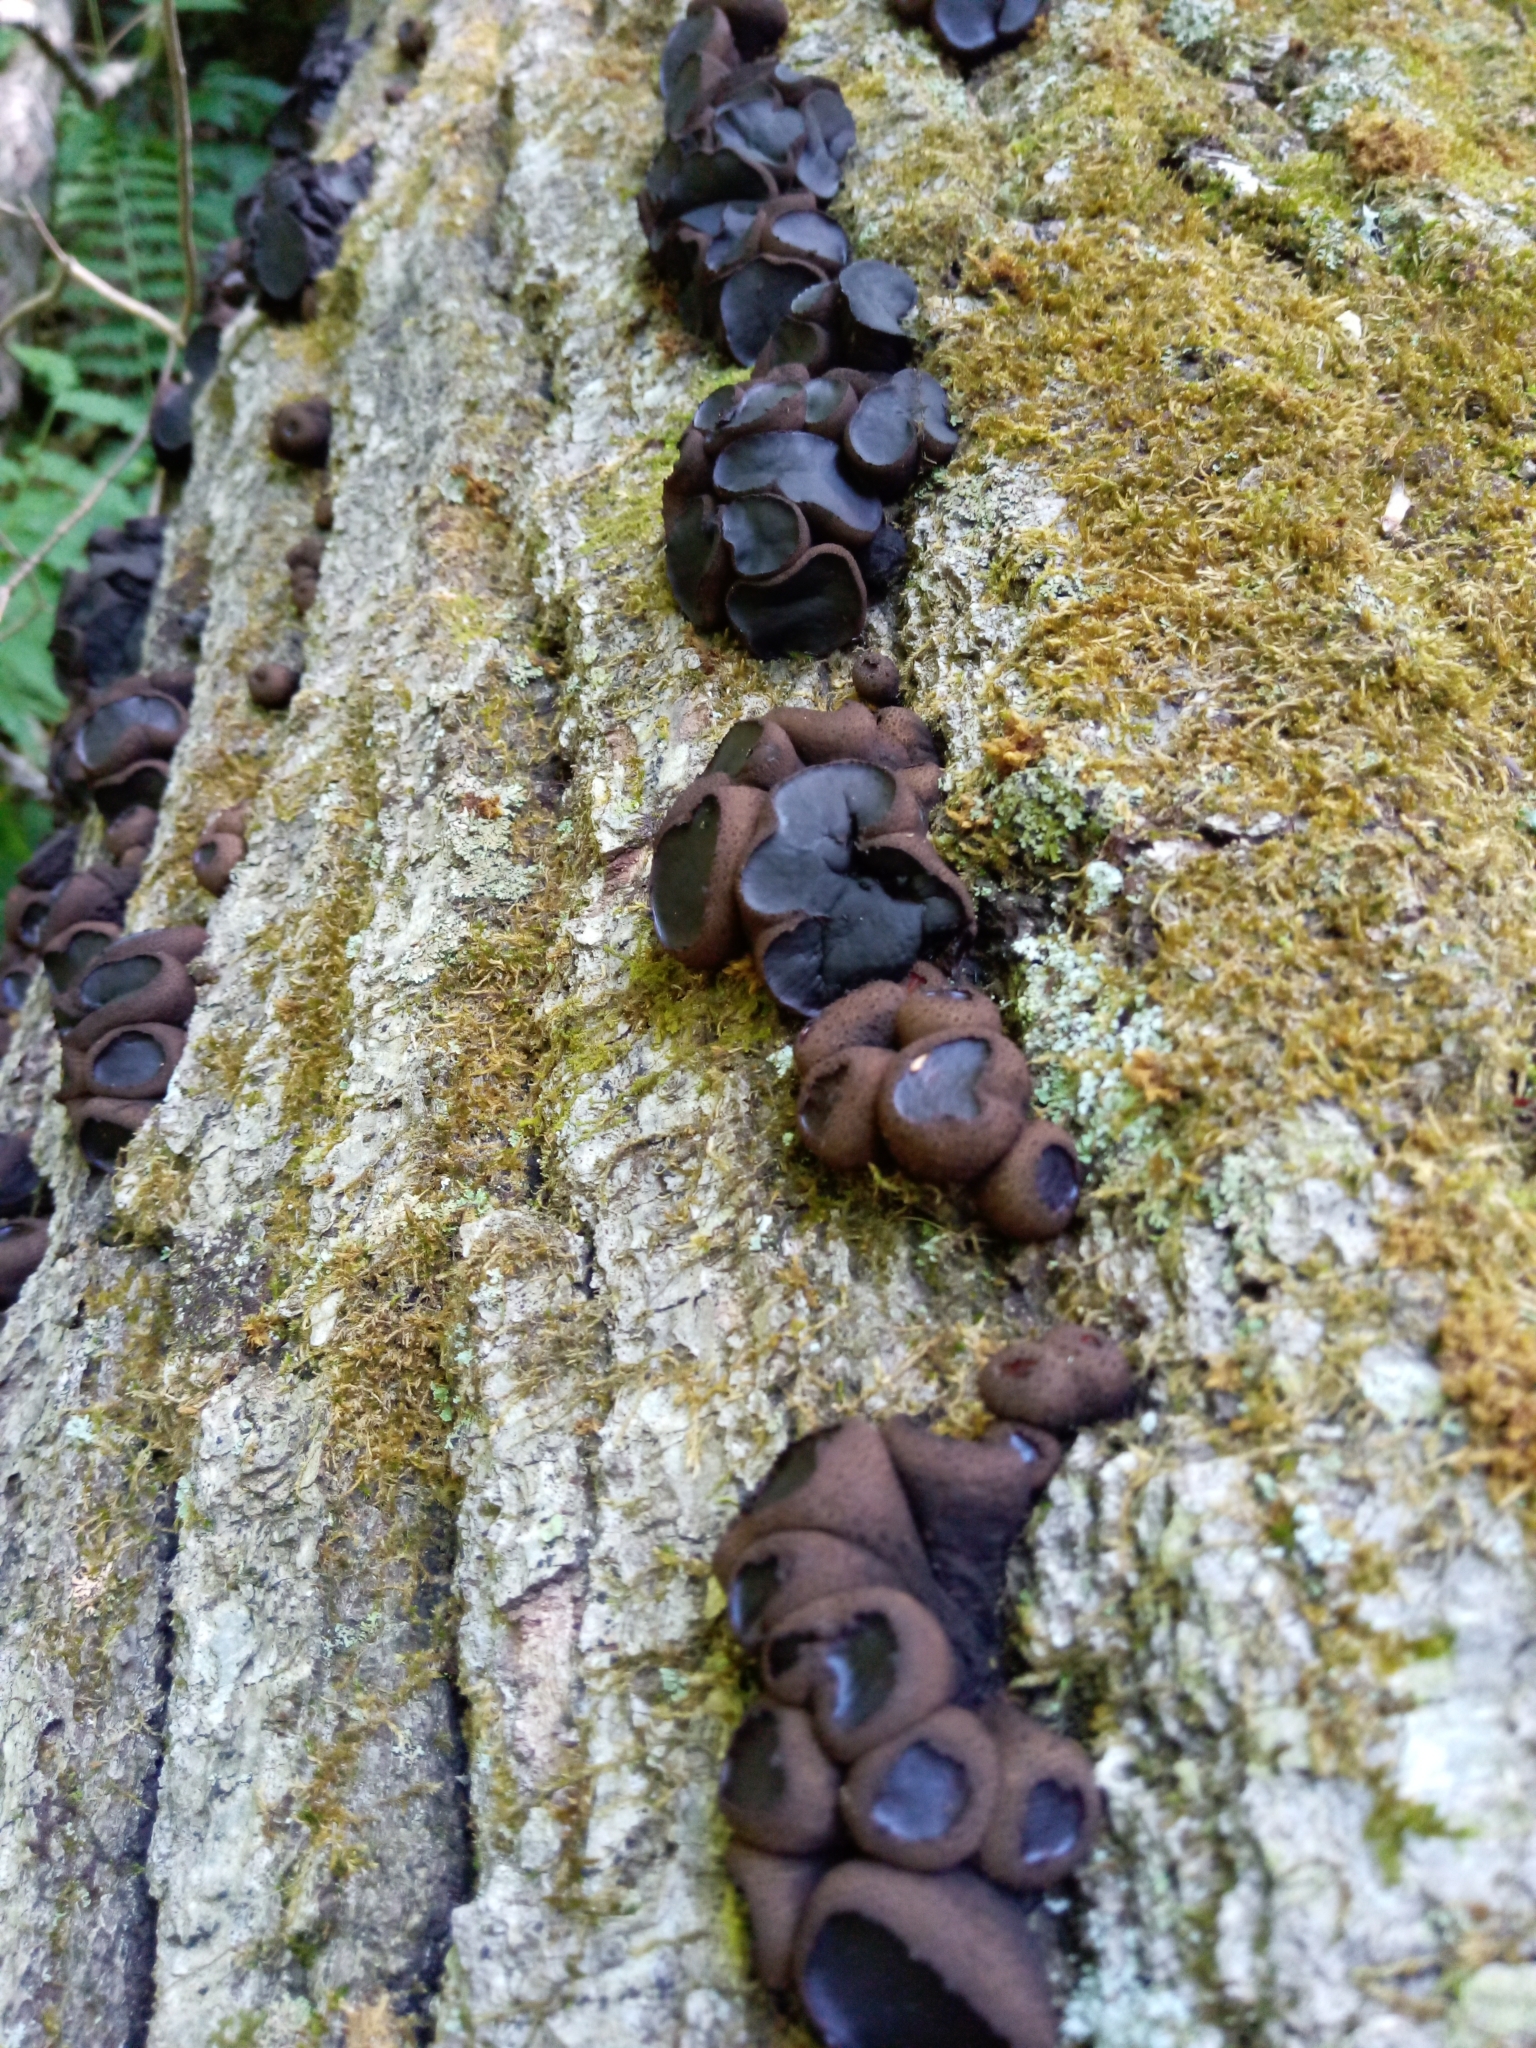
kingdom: Fungi
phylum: Ascomycota
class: Leotiomycetes
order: Phacidiales
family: Phacidiaceae
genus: Bulgaria
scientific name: Bulgaria inquinans
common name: Black bulgar
